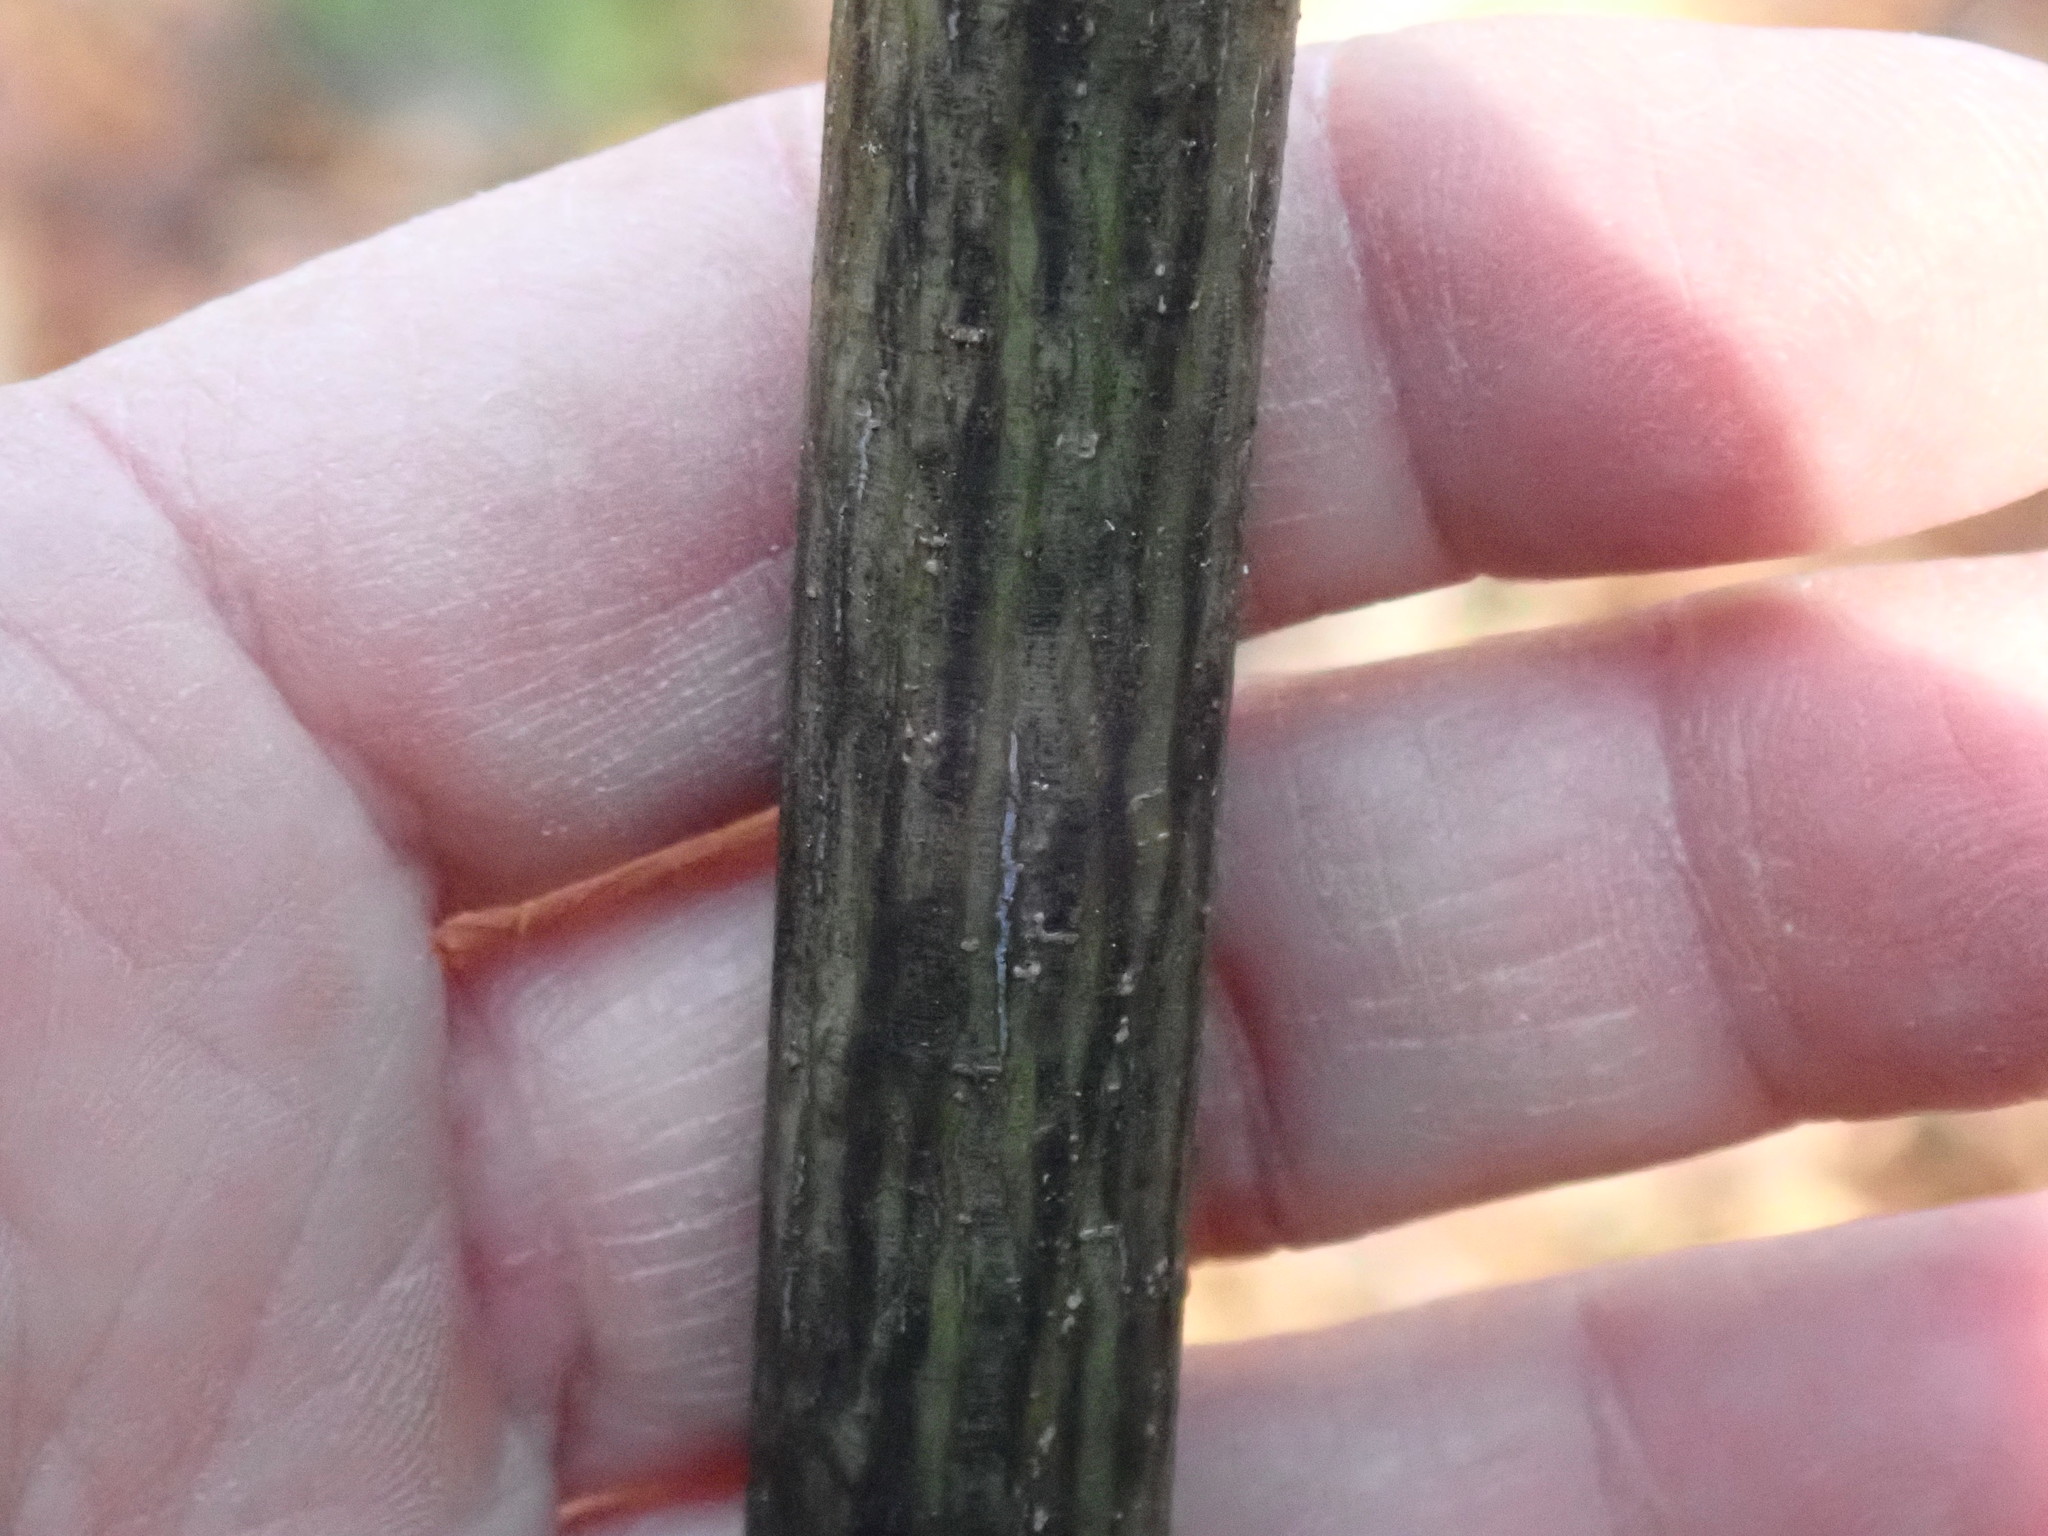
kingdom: Plantae
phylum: Tracheophyta
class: Magnoliopsida
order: Sapindales
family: Sapindaceae
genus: Acer
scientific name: Acer pensylvanicum
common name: Moosewood
